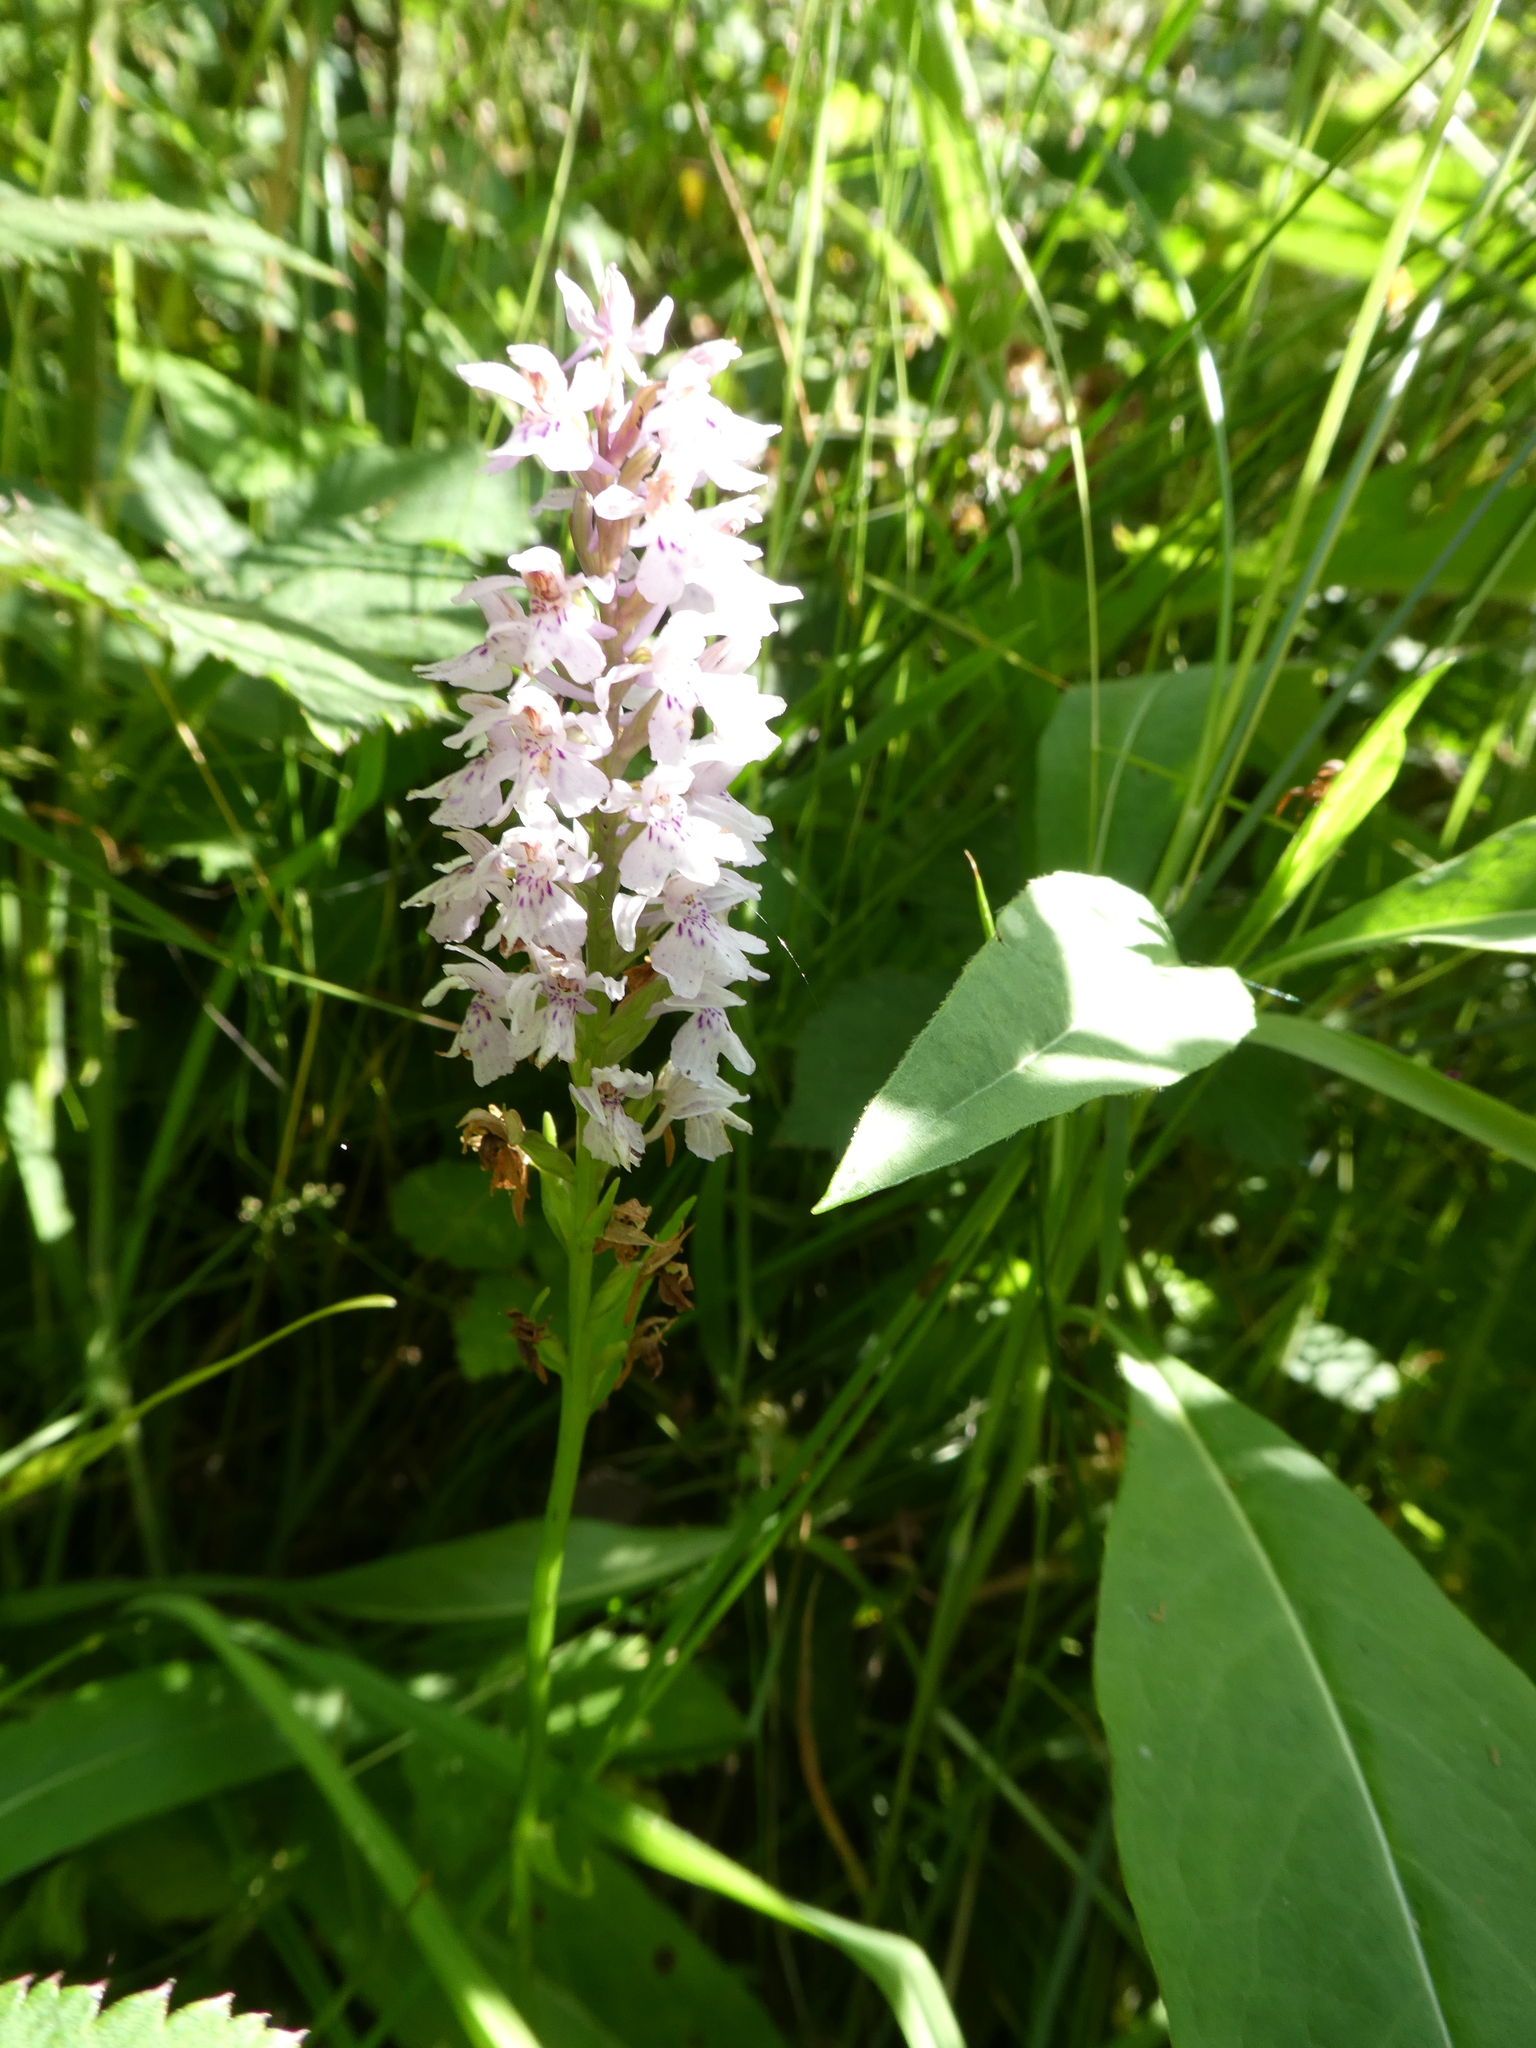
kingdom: Plantae
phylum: Tracheophyta
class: Liliopsida
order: Asparagales
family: Orchidaceae
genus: Dactylorhiza
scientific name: Dactylorhiza maculata
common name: Heath spotted-orchid
